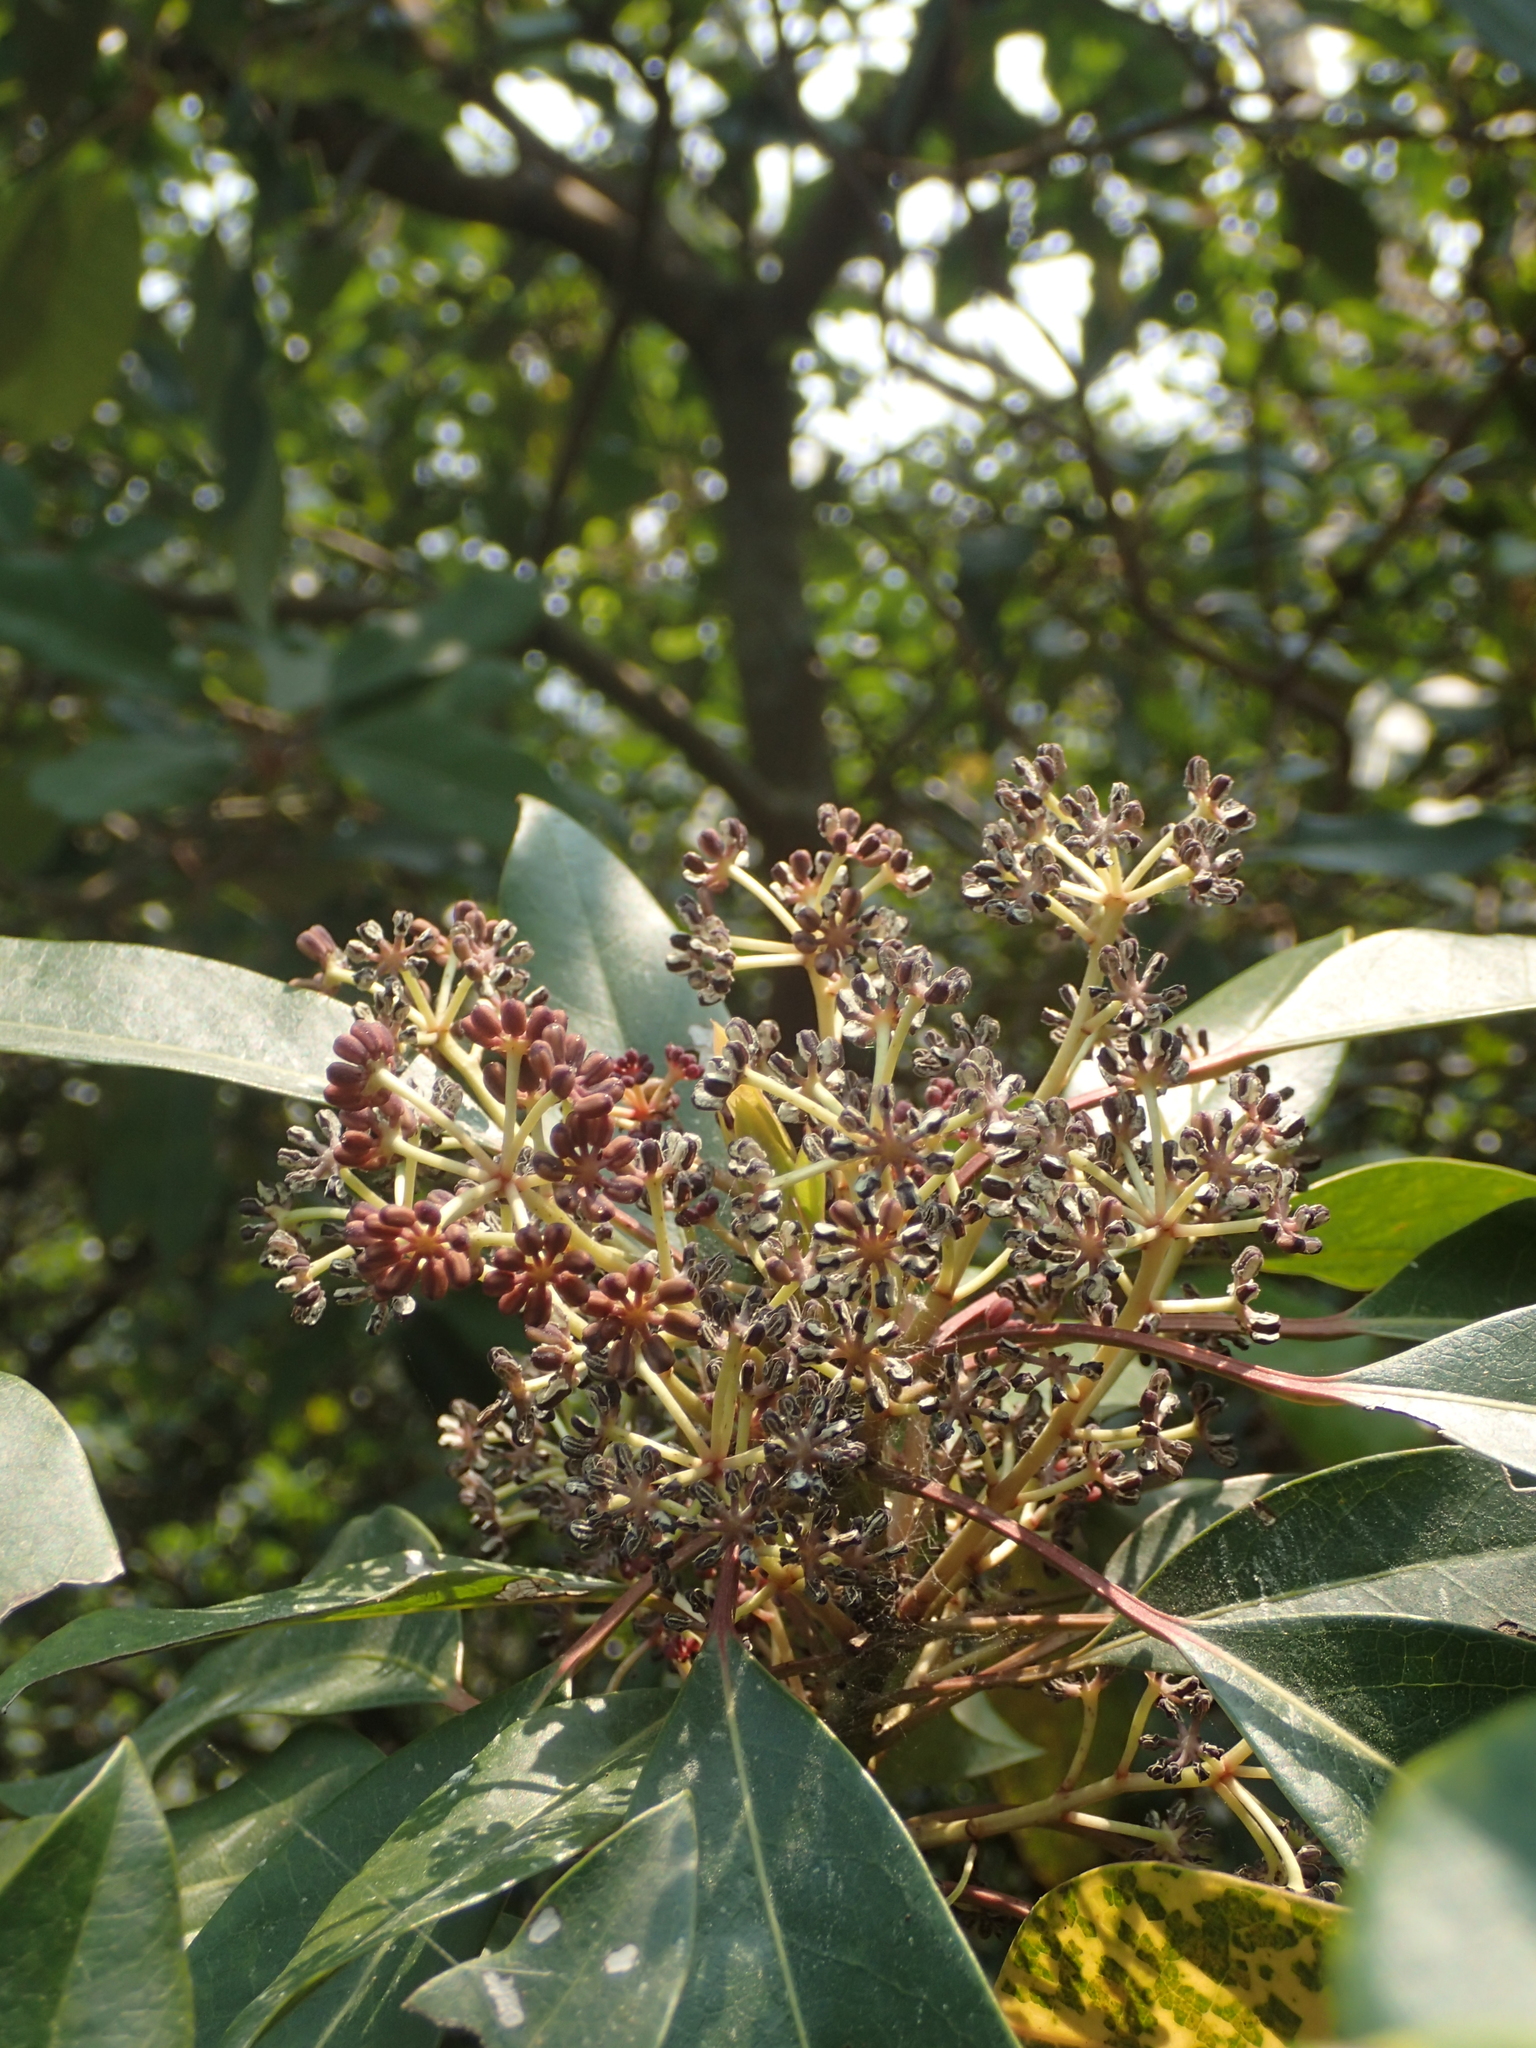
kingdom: Plantae
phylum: Tracheophyta
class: Magnoliopsida
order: Saxifragales
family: Daphniphyllaceae
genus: Daphniphyllum
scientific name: Daphniphyllum pentandrum
